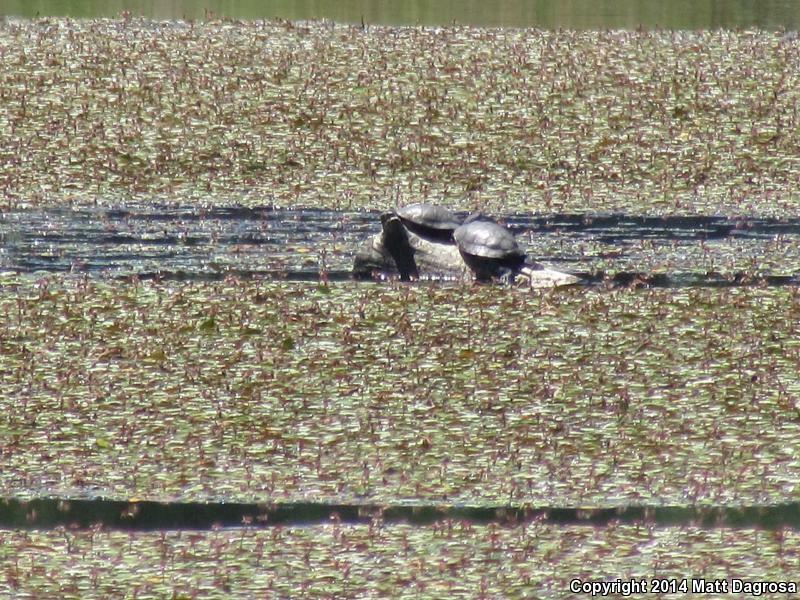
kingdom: Animalia
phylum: Chordata
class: Testudines
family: Emydidae
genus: Actinemys
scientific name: Actinemys marmorata
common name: Western pond turtle
